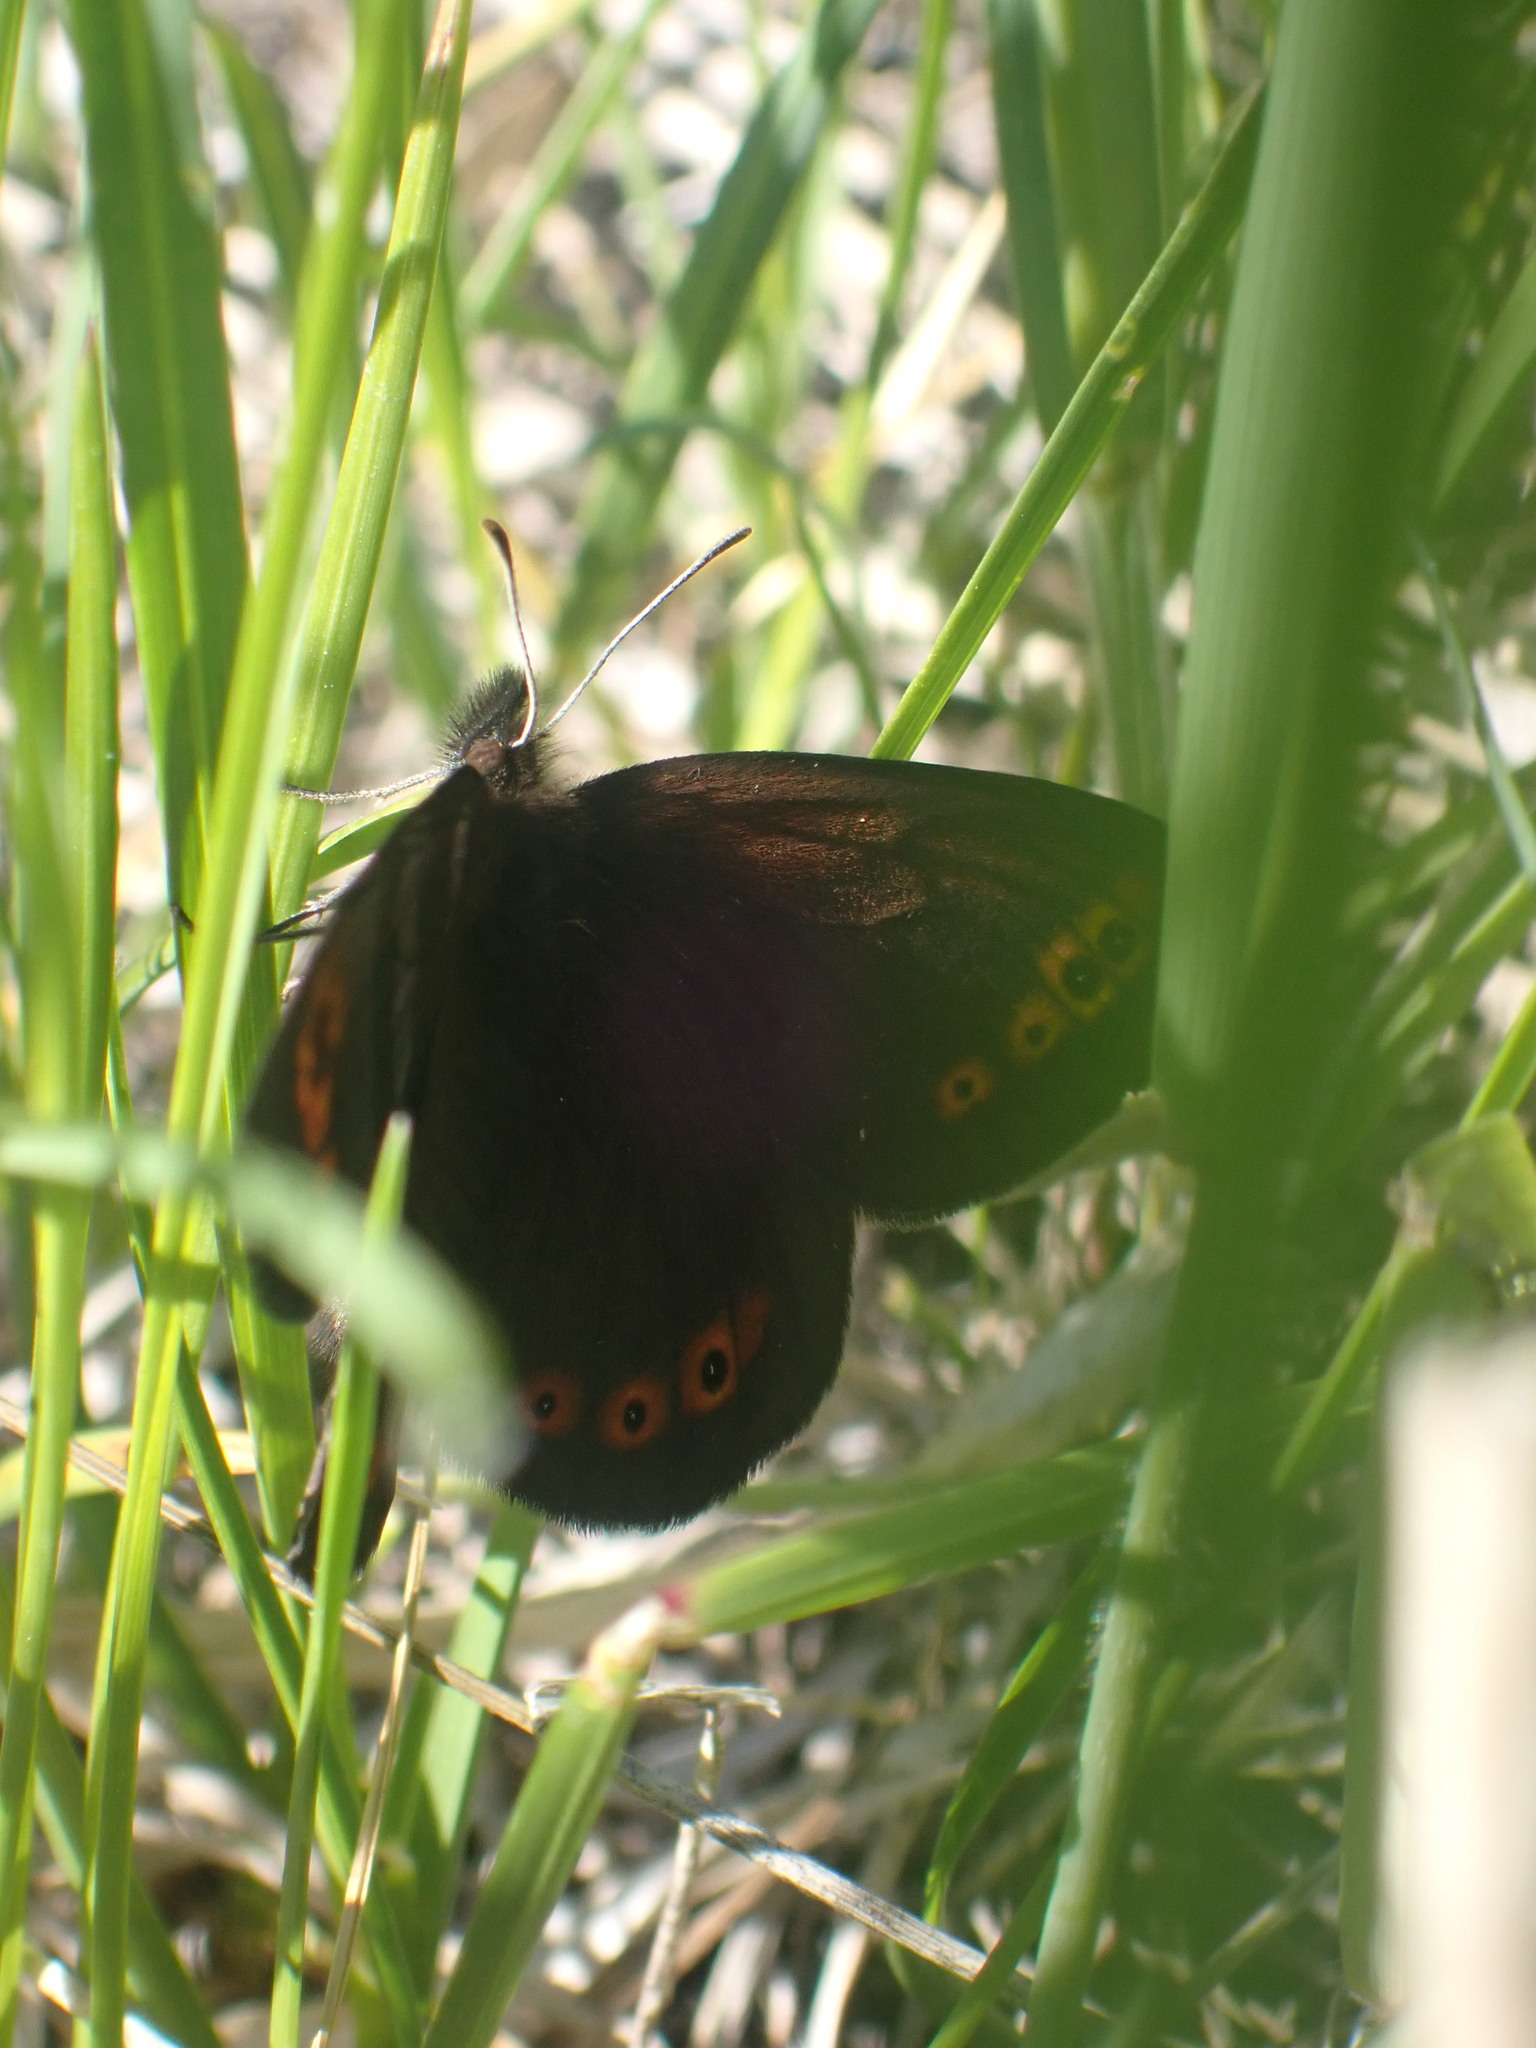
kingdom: Animalia
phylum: Arthropoda
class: Insecta
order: Lepidoptera
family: Nymphalidae
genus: Erebia
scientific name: Erebia epipsodea
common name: Common alpine
